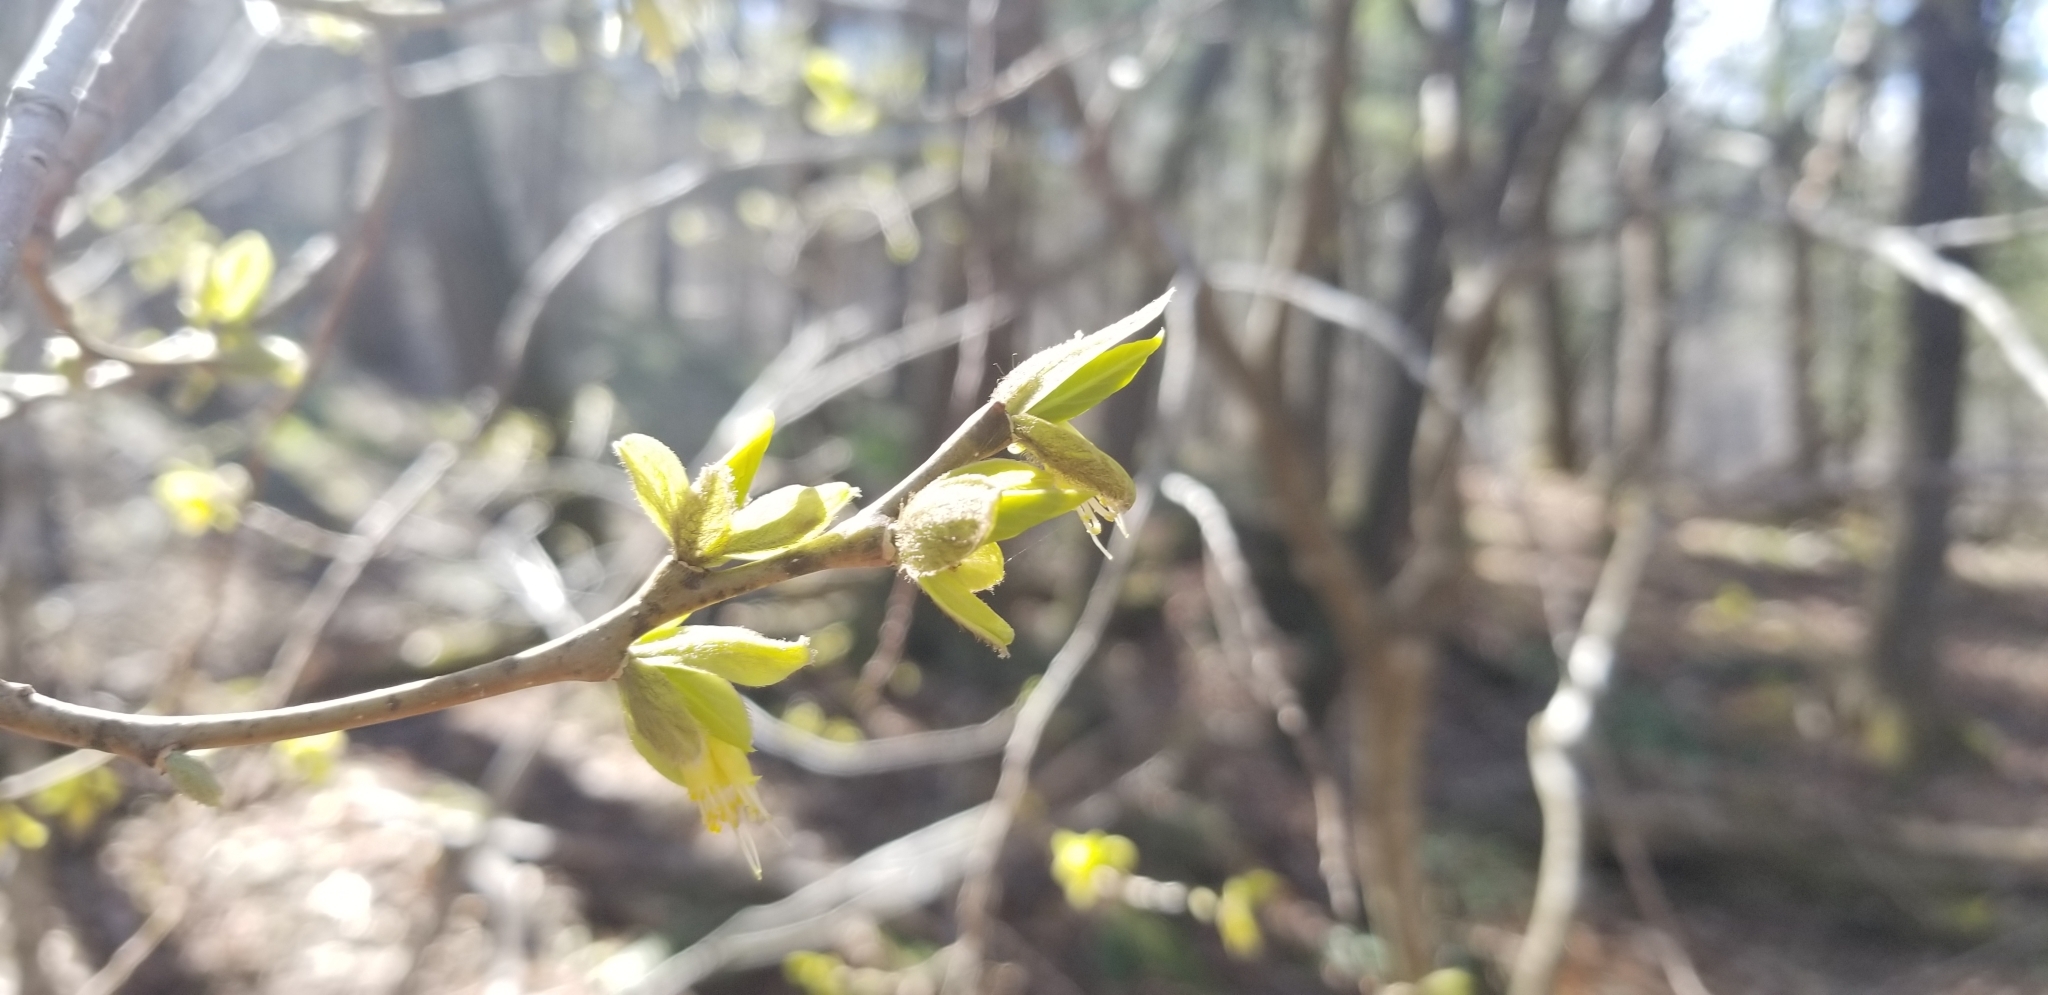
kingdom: Plantae
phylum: Tracheophyta
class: Magnoliopsida
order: Malvales
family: Thymelaeaceae
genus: Dirca
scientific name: Dirca palustris
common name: Leatherwood
